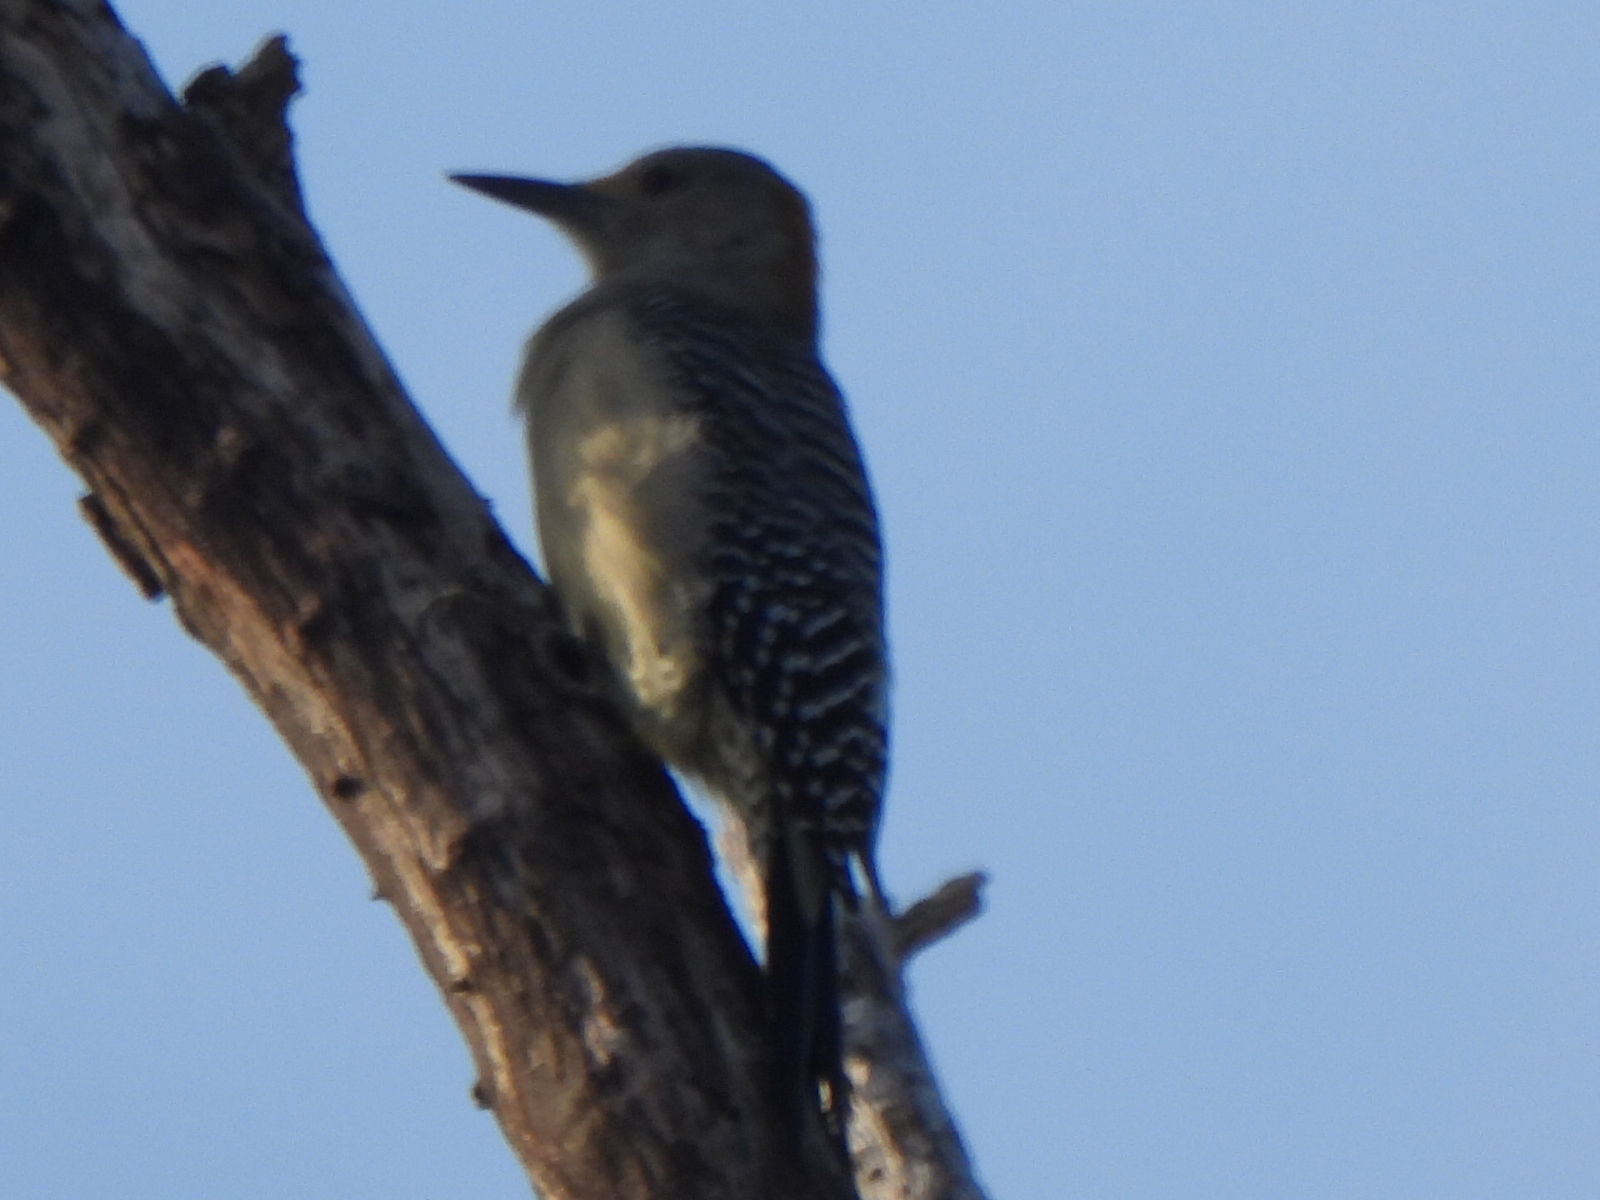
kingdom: Animalia
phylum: Chordata
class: Aves
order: Piciformes
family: Picidae
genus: Melanerpes
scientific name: Melanerpes aurifrons
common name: Golden-fronted woodpecker
